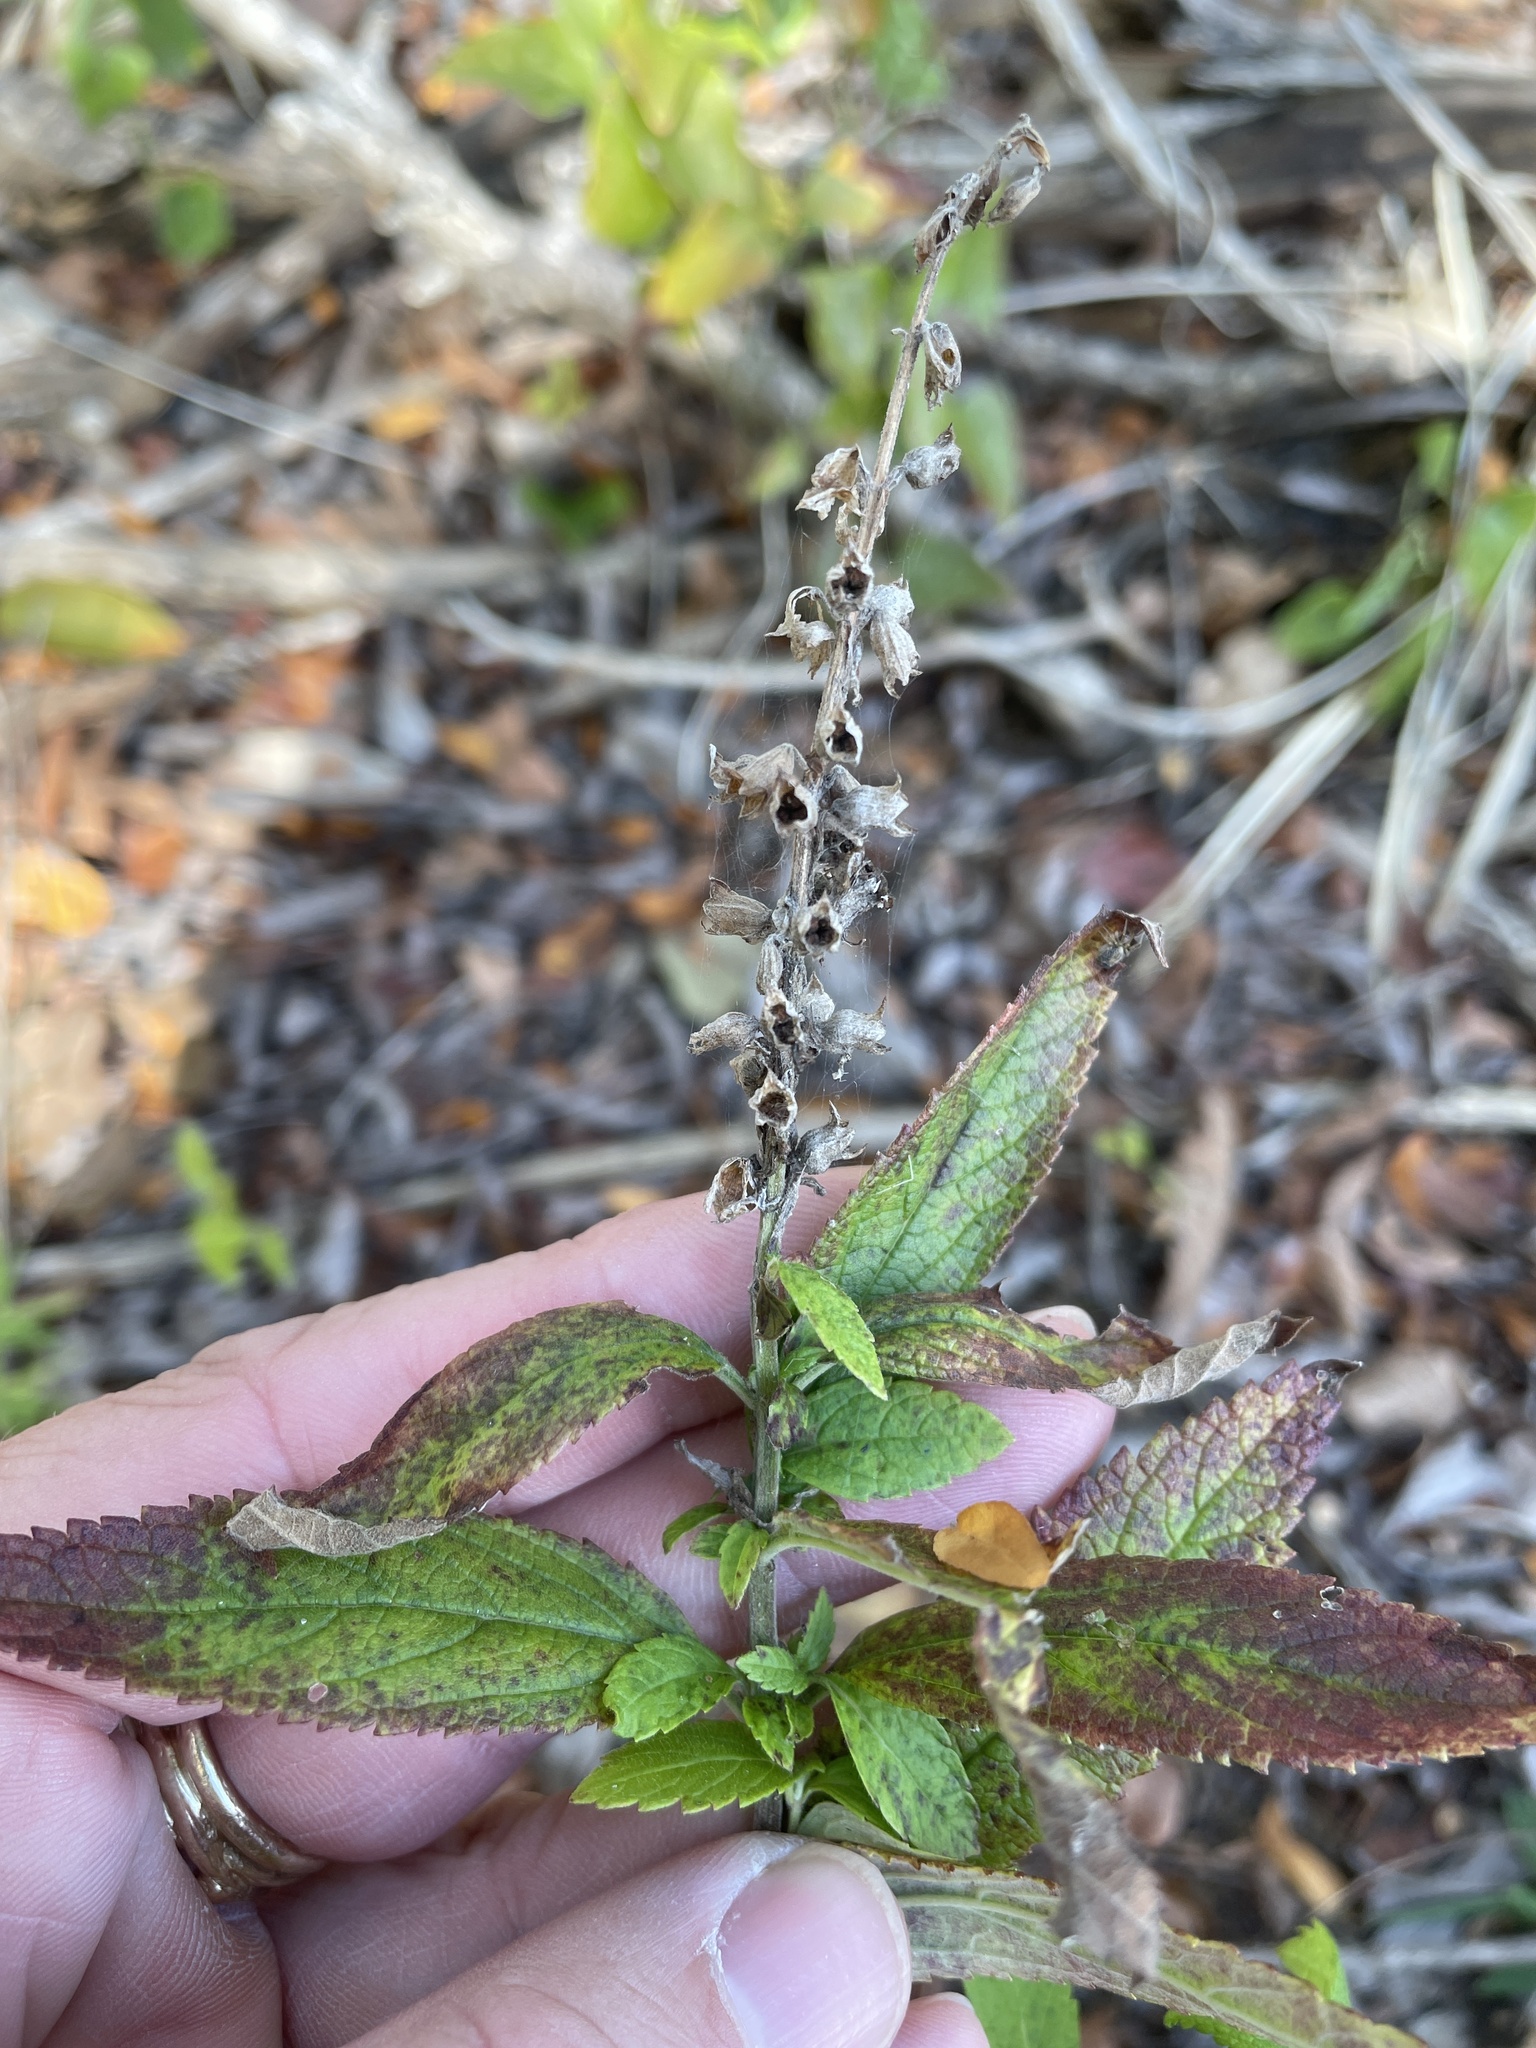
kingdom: Plantae
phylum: Tracheophyta
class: Magnoliopsida
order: Lamiales
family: Lamiaceae
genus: Teucrium
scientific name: Teucrium canadense
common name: American germander
